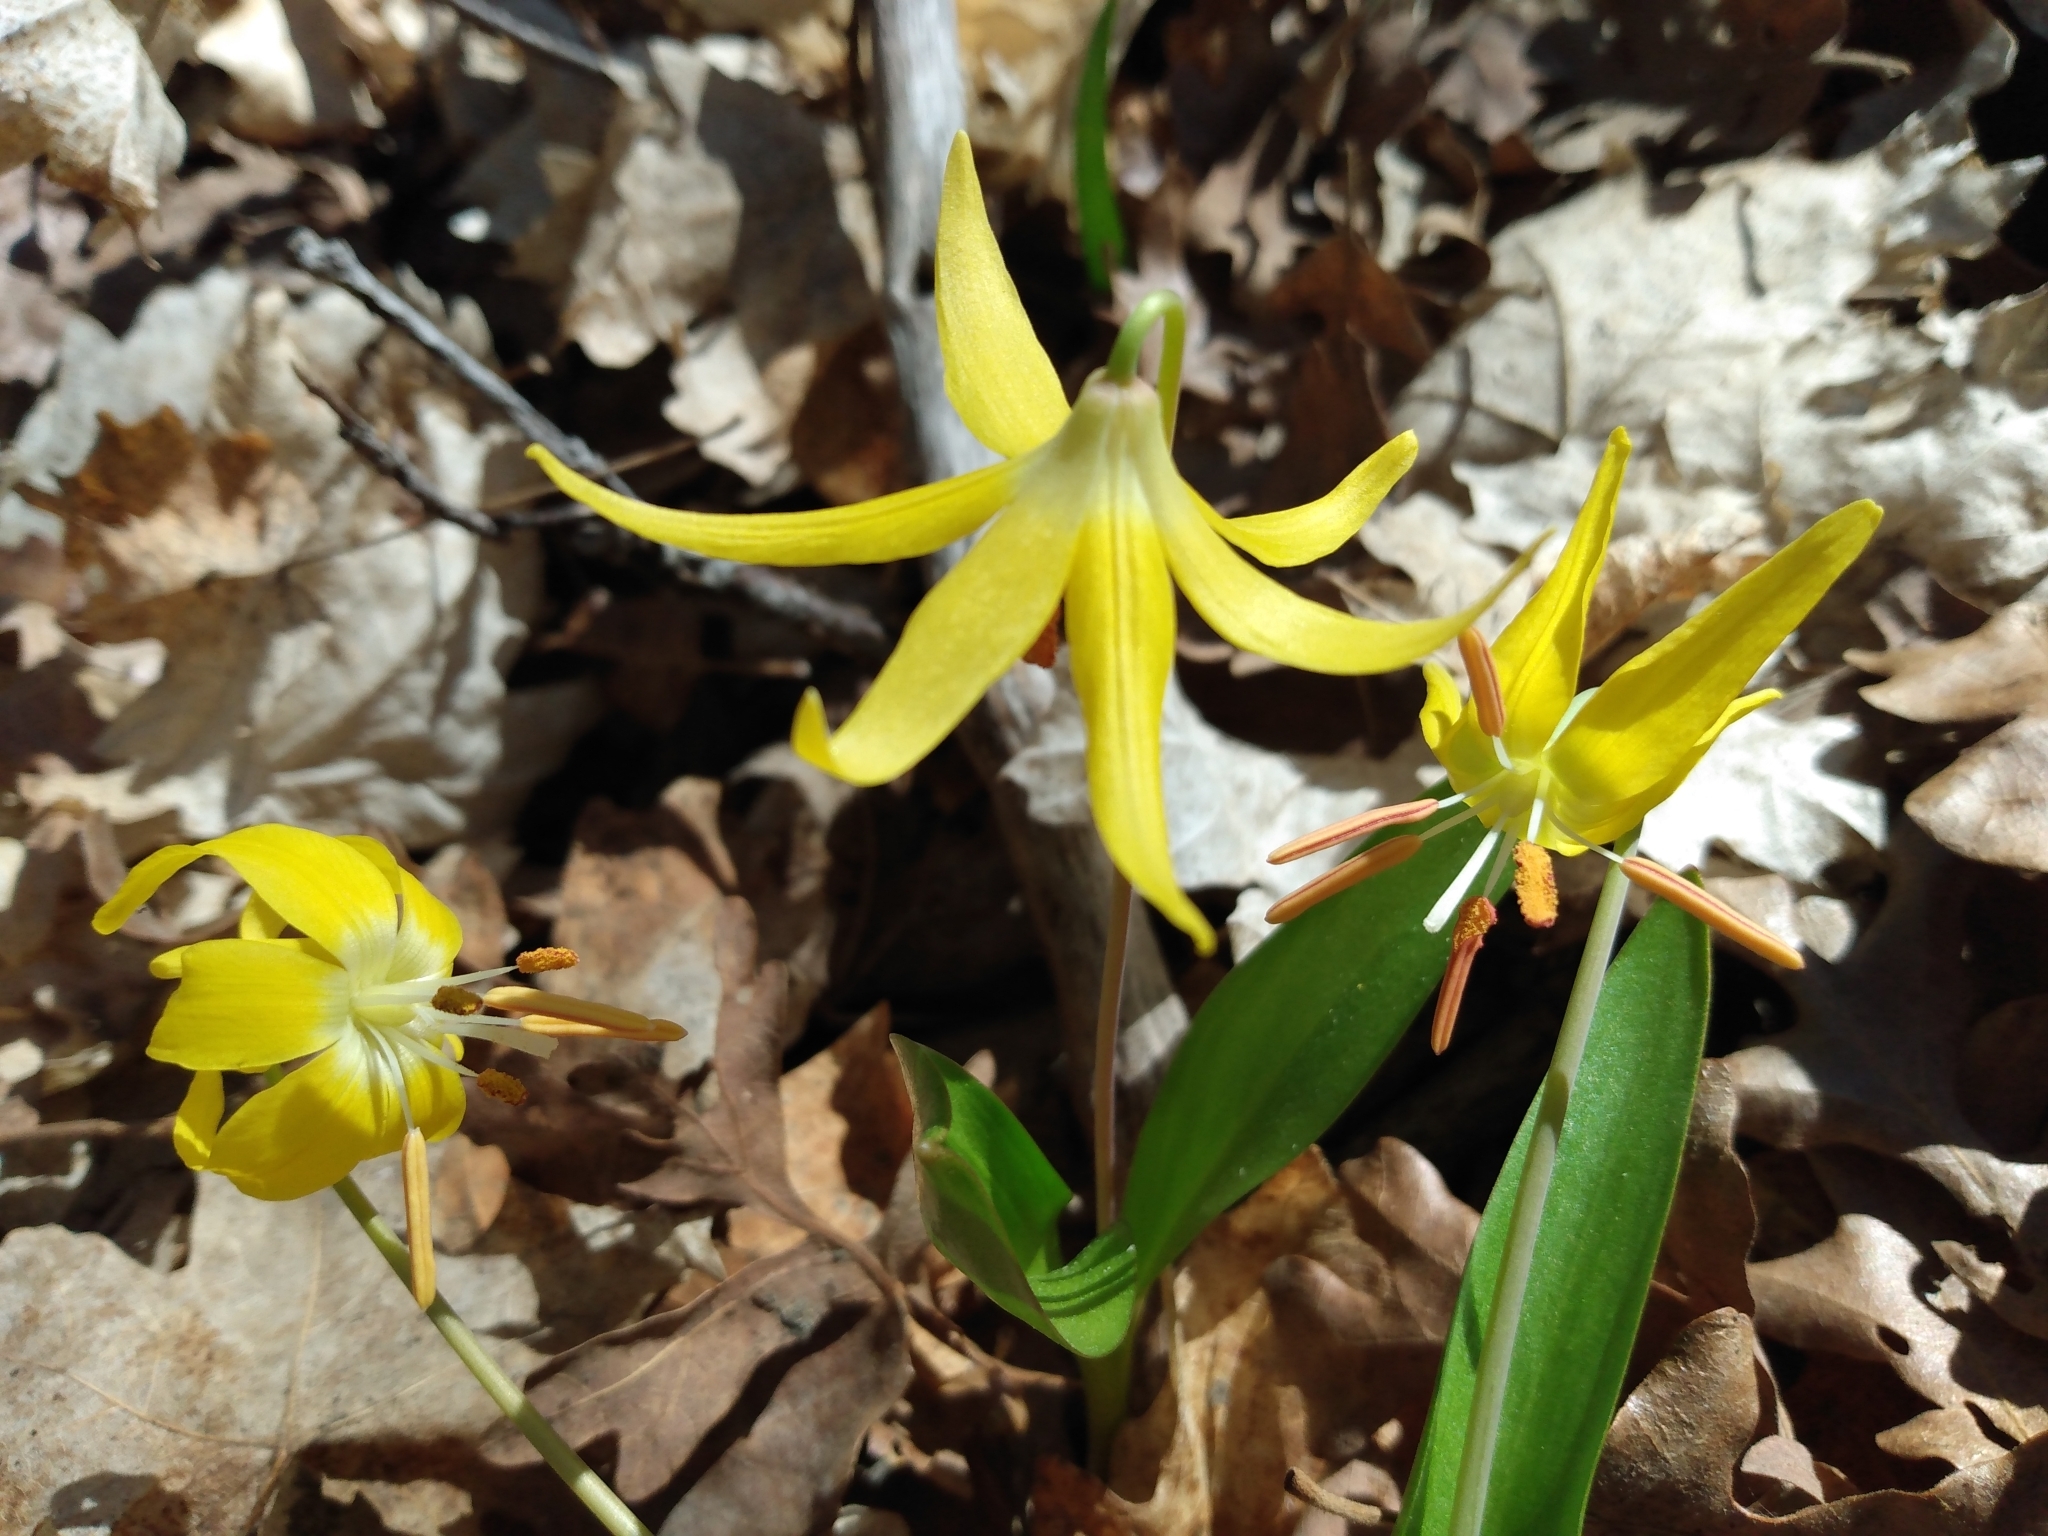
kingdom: Plantae
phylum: Tracheophyta
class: Liliopsida
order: Liliales
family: Liliaceae
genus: Erythronium
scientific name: Erythronium grandiflorum
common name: Avalanche-lily
